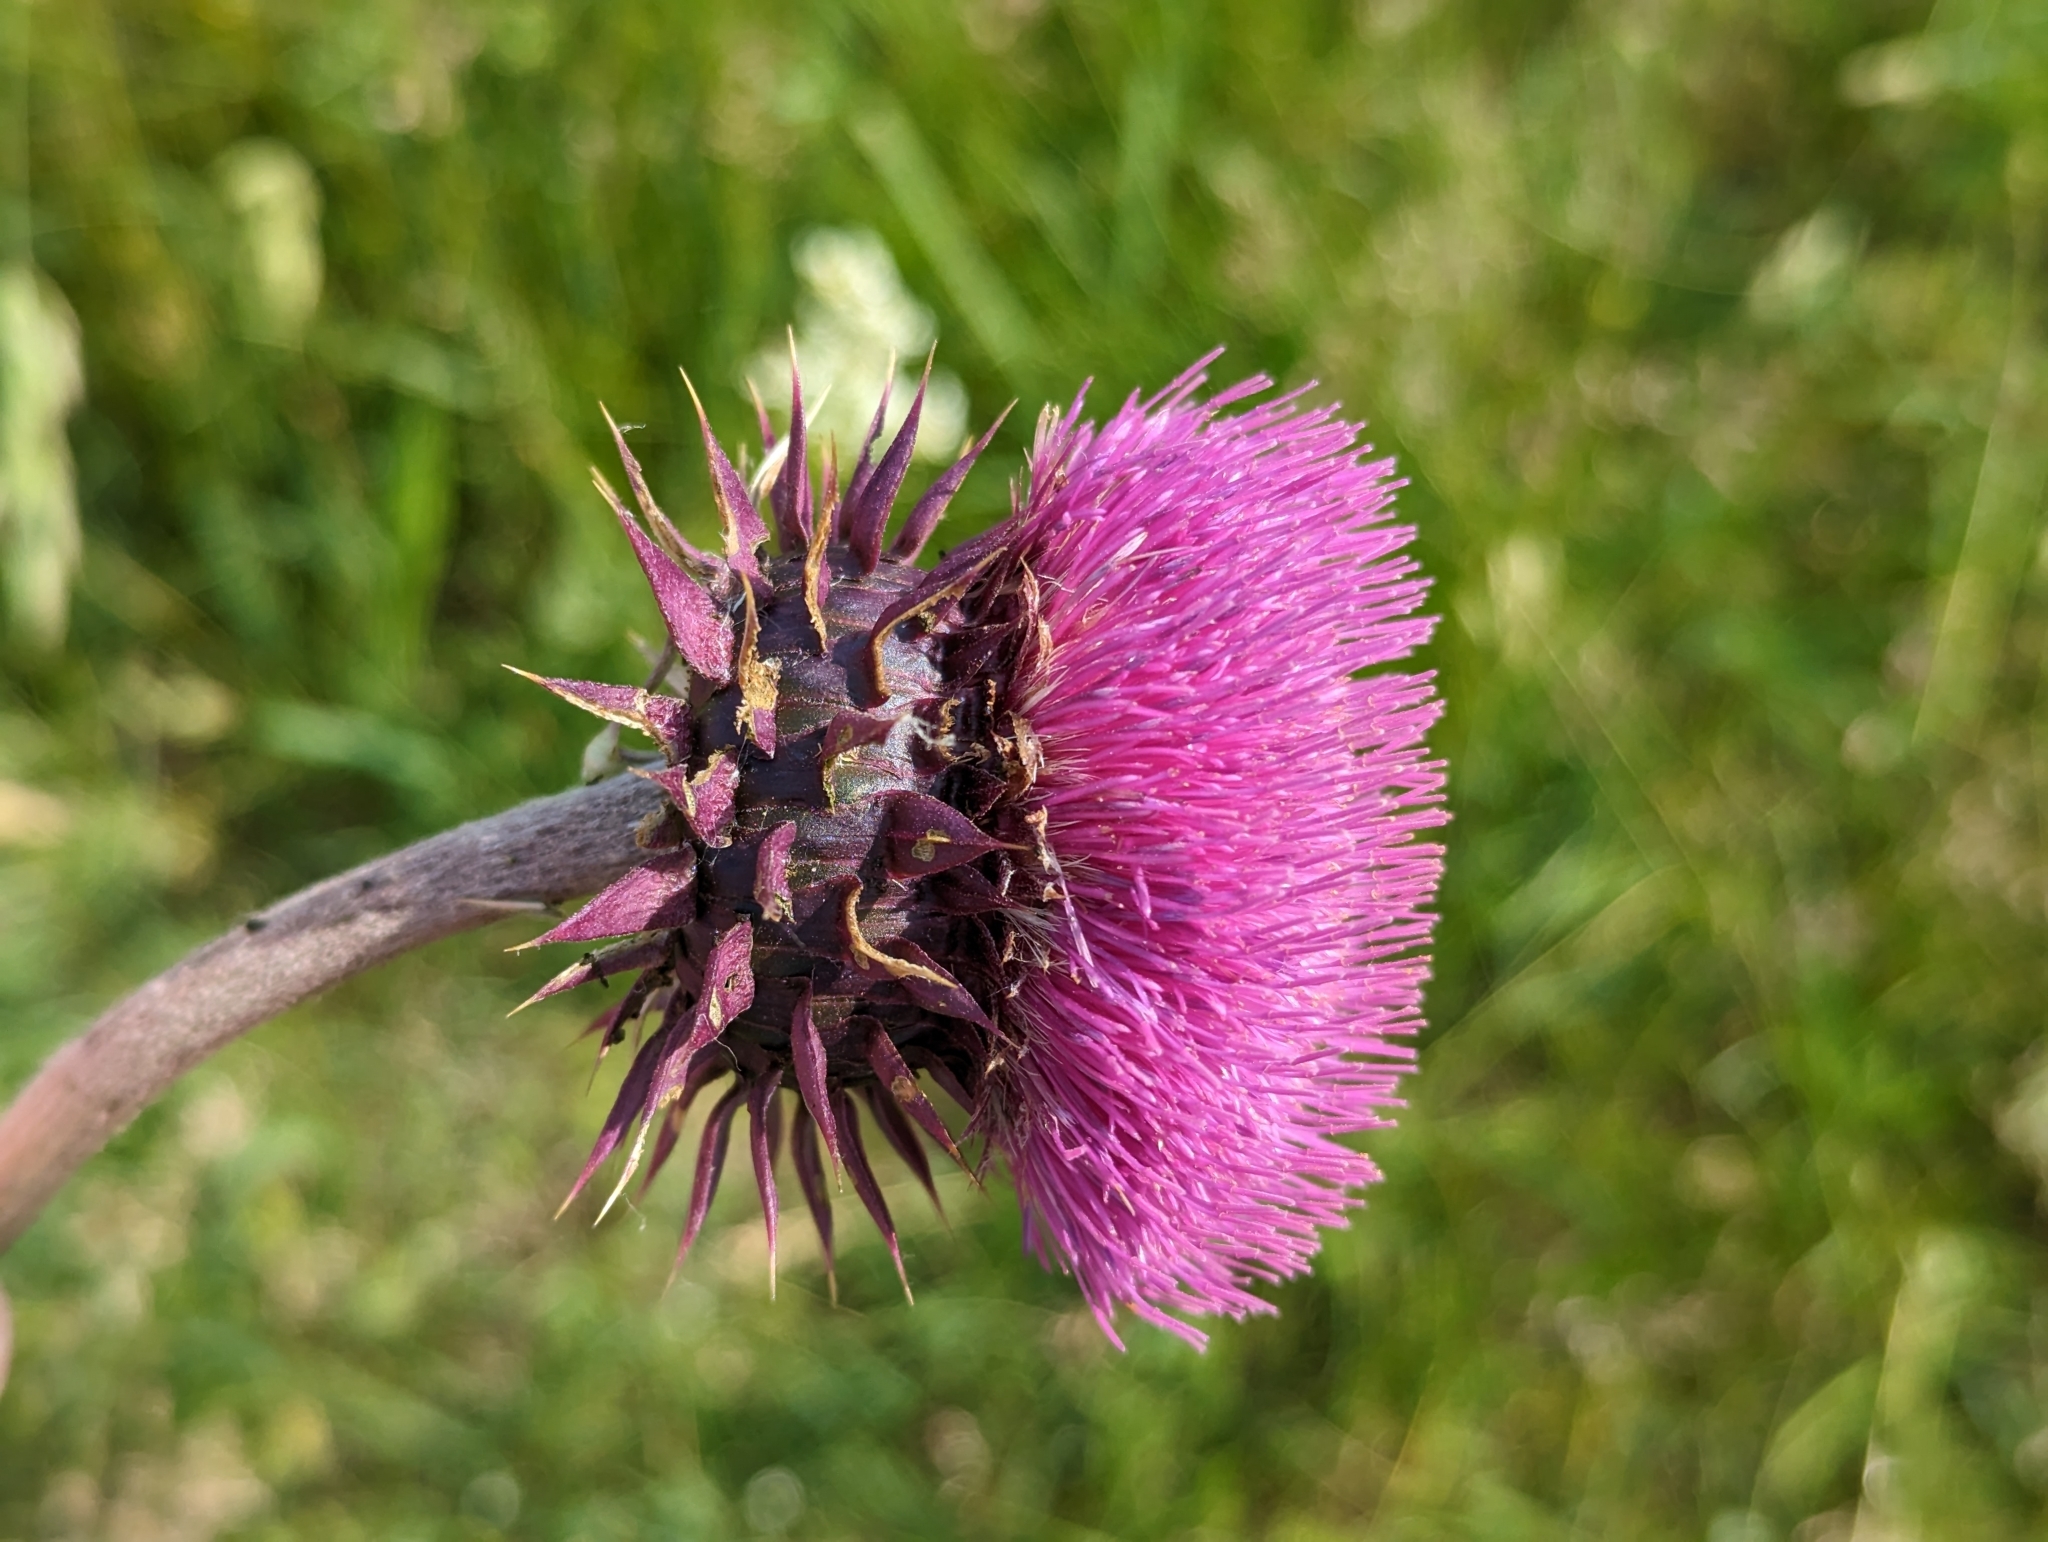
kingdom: Plantae
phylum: Tracheophyta
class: Magnoliopsida
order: Asterales
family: Asteraceae
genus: Carduus
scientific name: Carduus nutans
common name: Musk thistle
